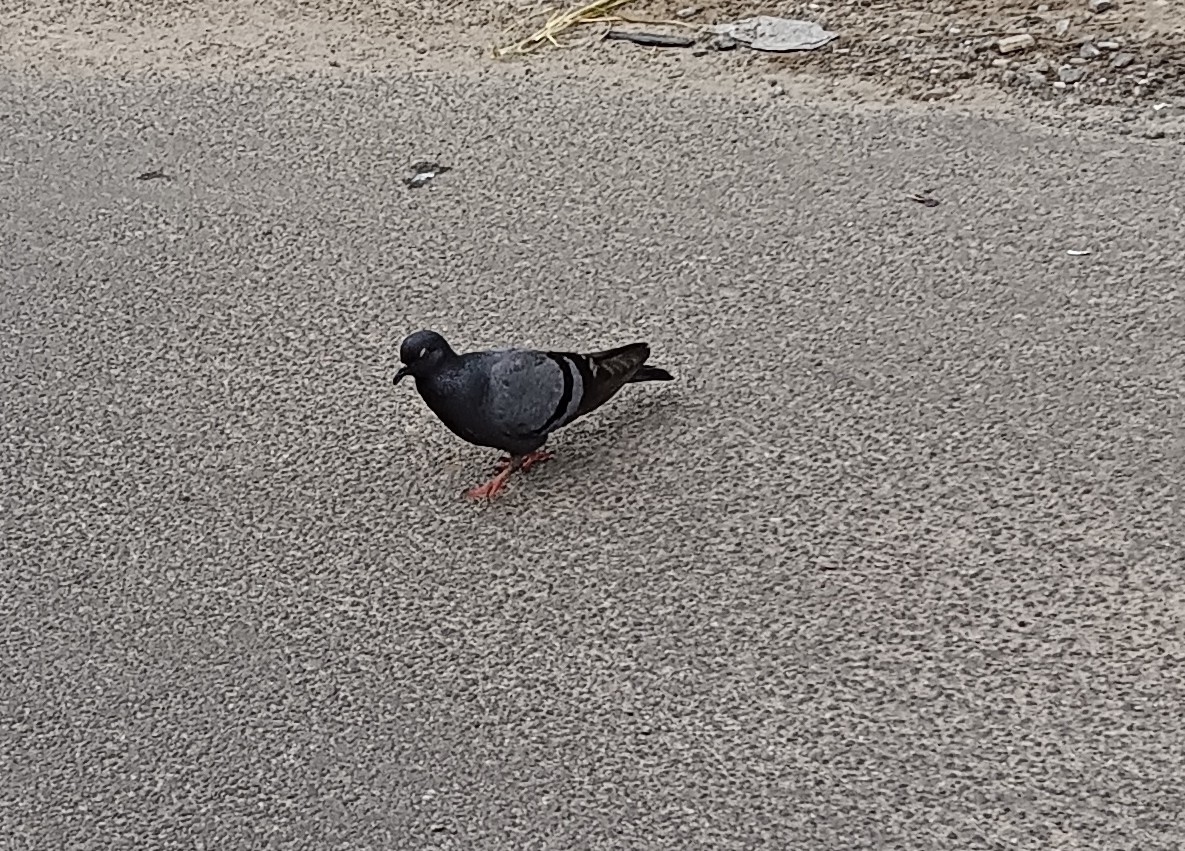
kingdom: Animalia
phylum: Chordata
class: Aves
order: Columbiformes
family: Columbidae
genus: Columba
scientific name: Columba livia
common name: Rock pigeon
